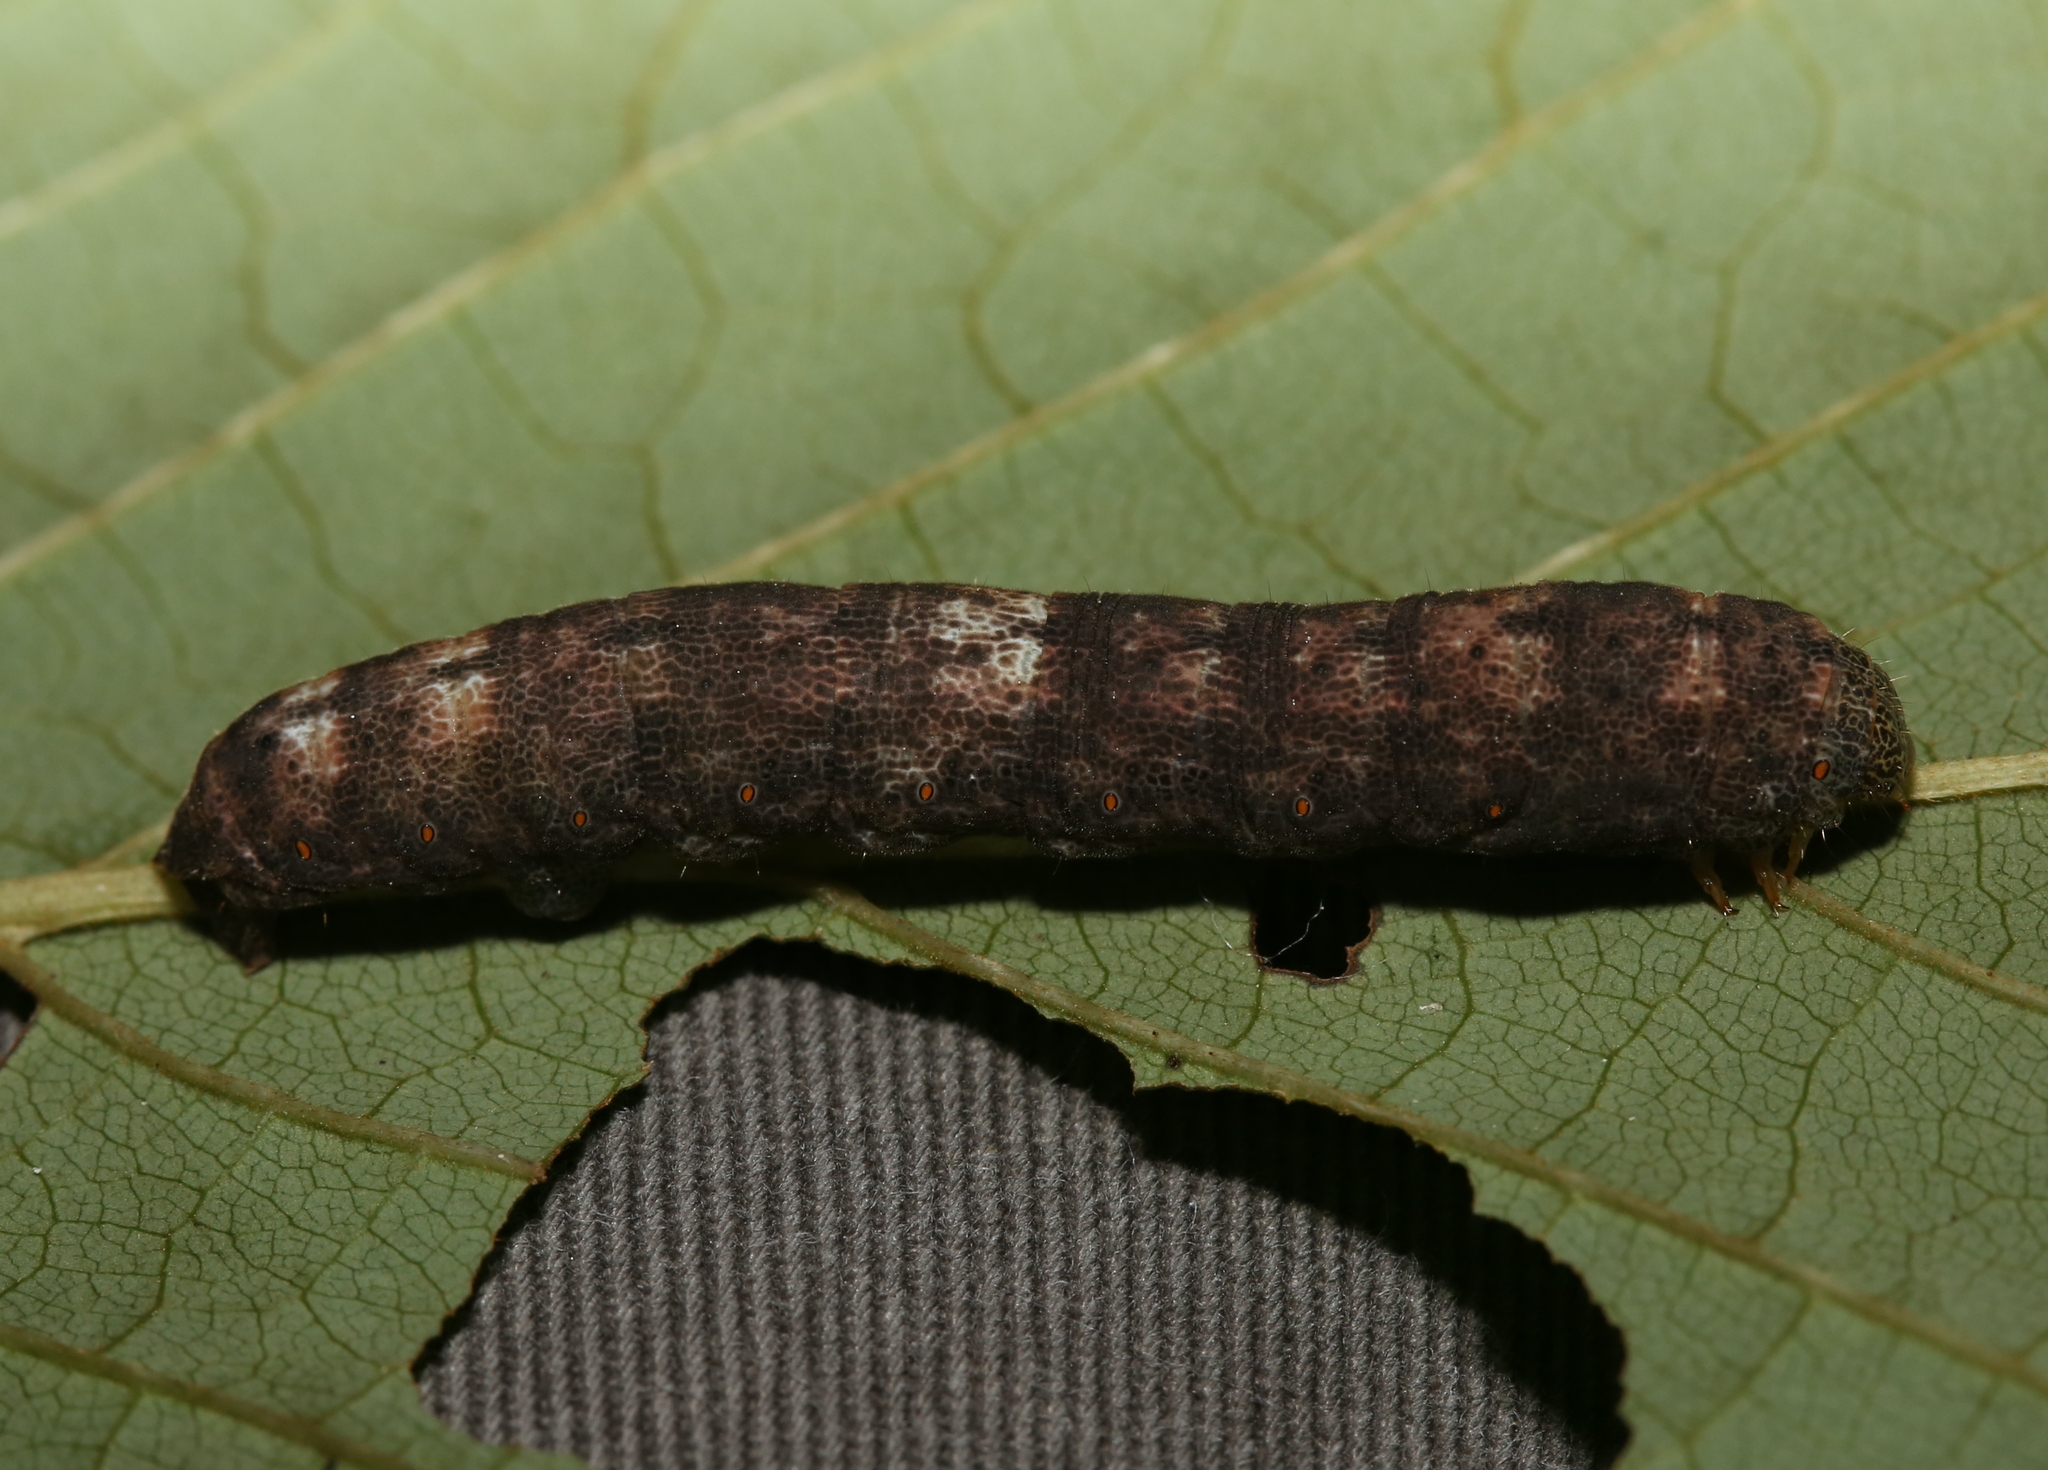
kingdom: Animalia
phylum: Arthropoda
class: Insecta
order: Lepidoptera
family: Geometridae
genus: Epimecis
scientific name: Epimecis hortaria
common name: Tulip-tree beauty
